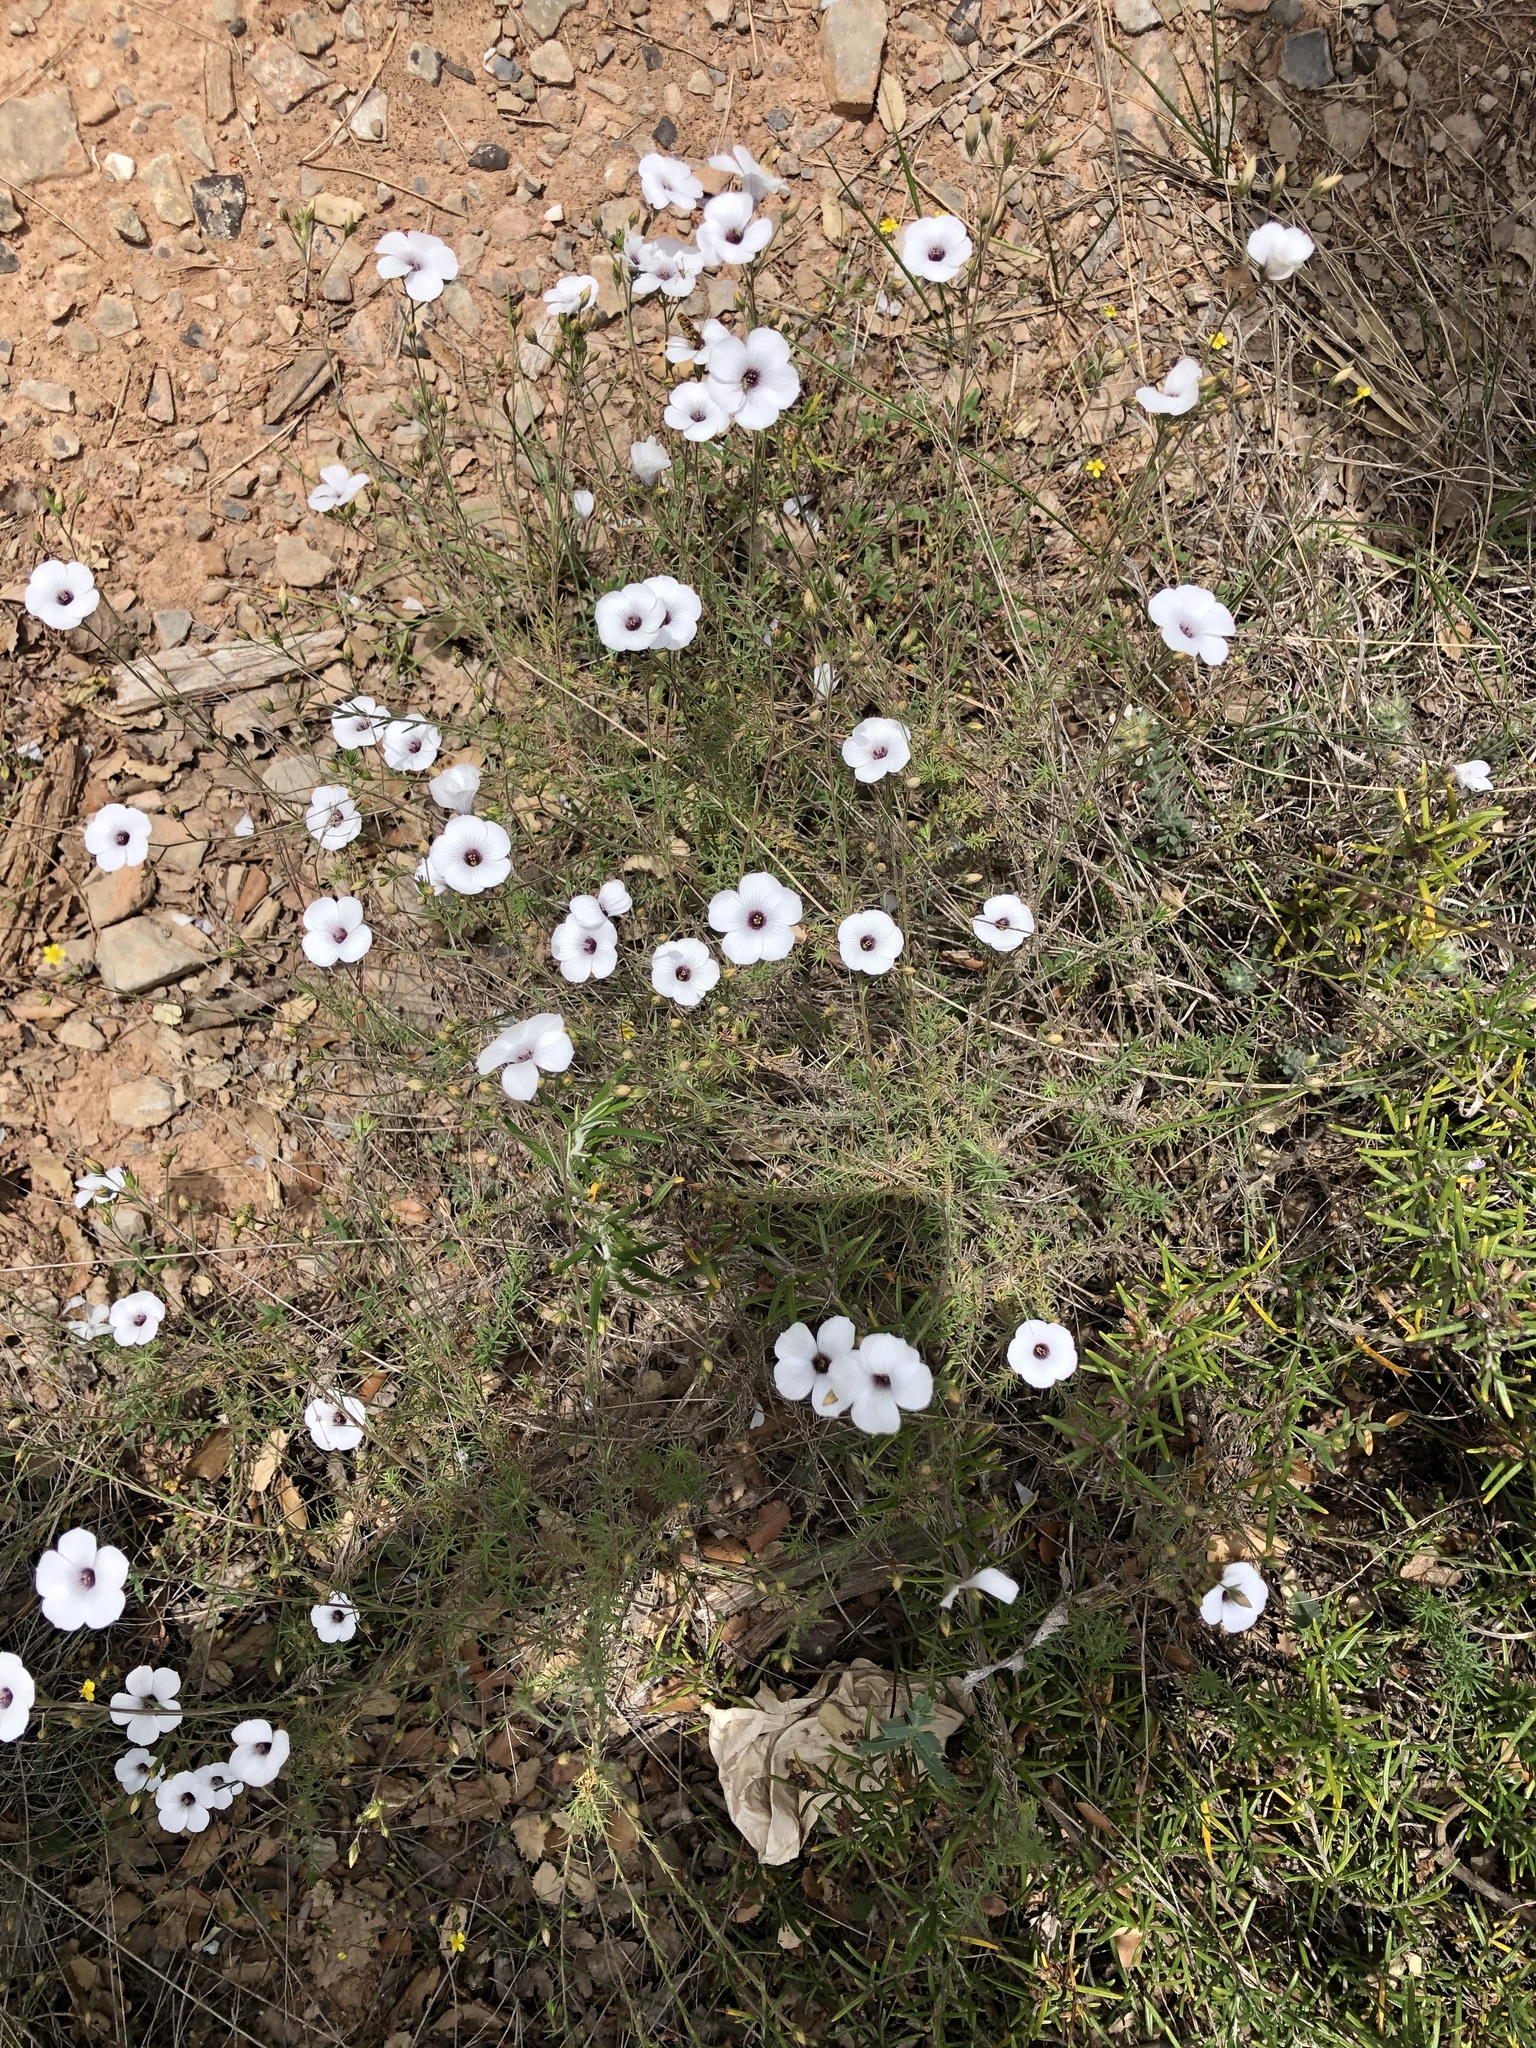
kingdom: Plantae
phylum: Tracheophyta
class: Magnoliopsida
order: Malpighiales
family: Linaceae
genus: Linum
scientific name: Linum suffruticosum
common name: White flax
